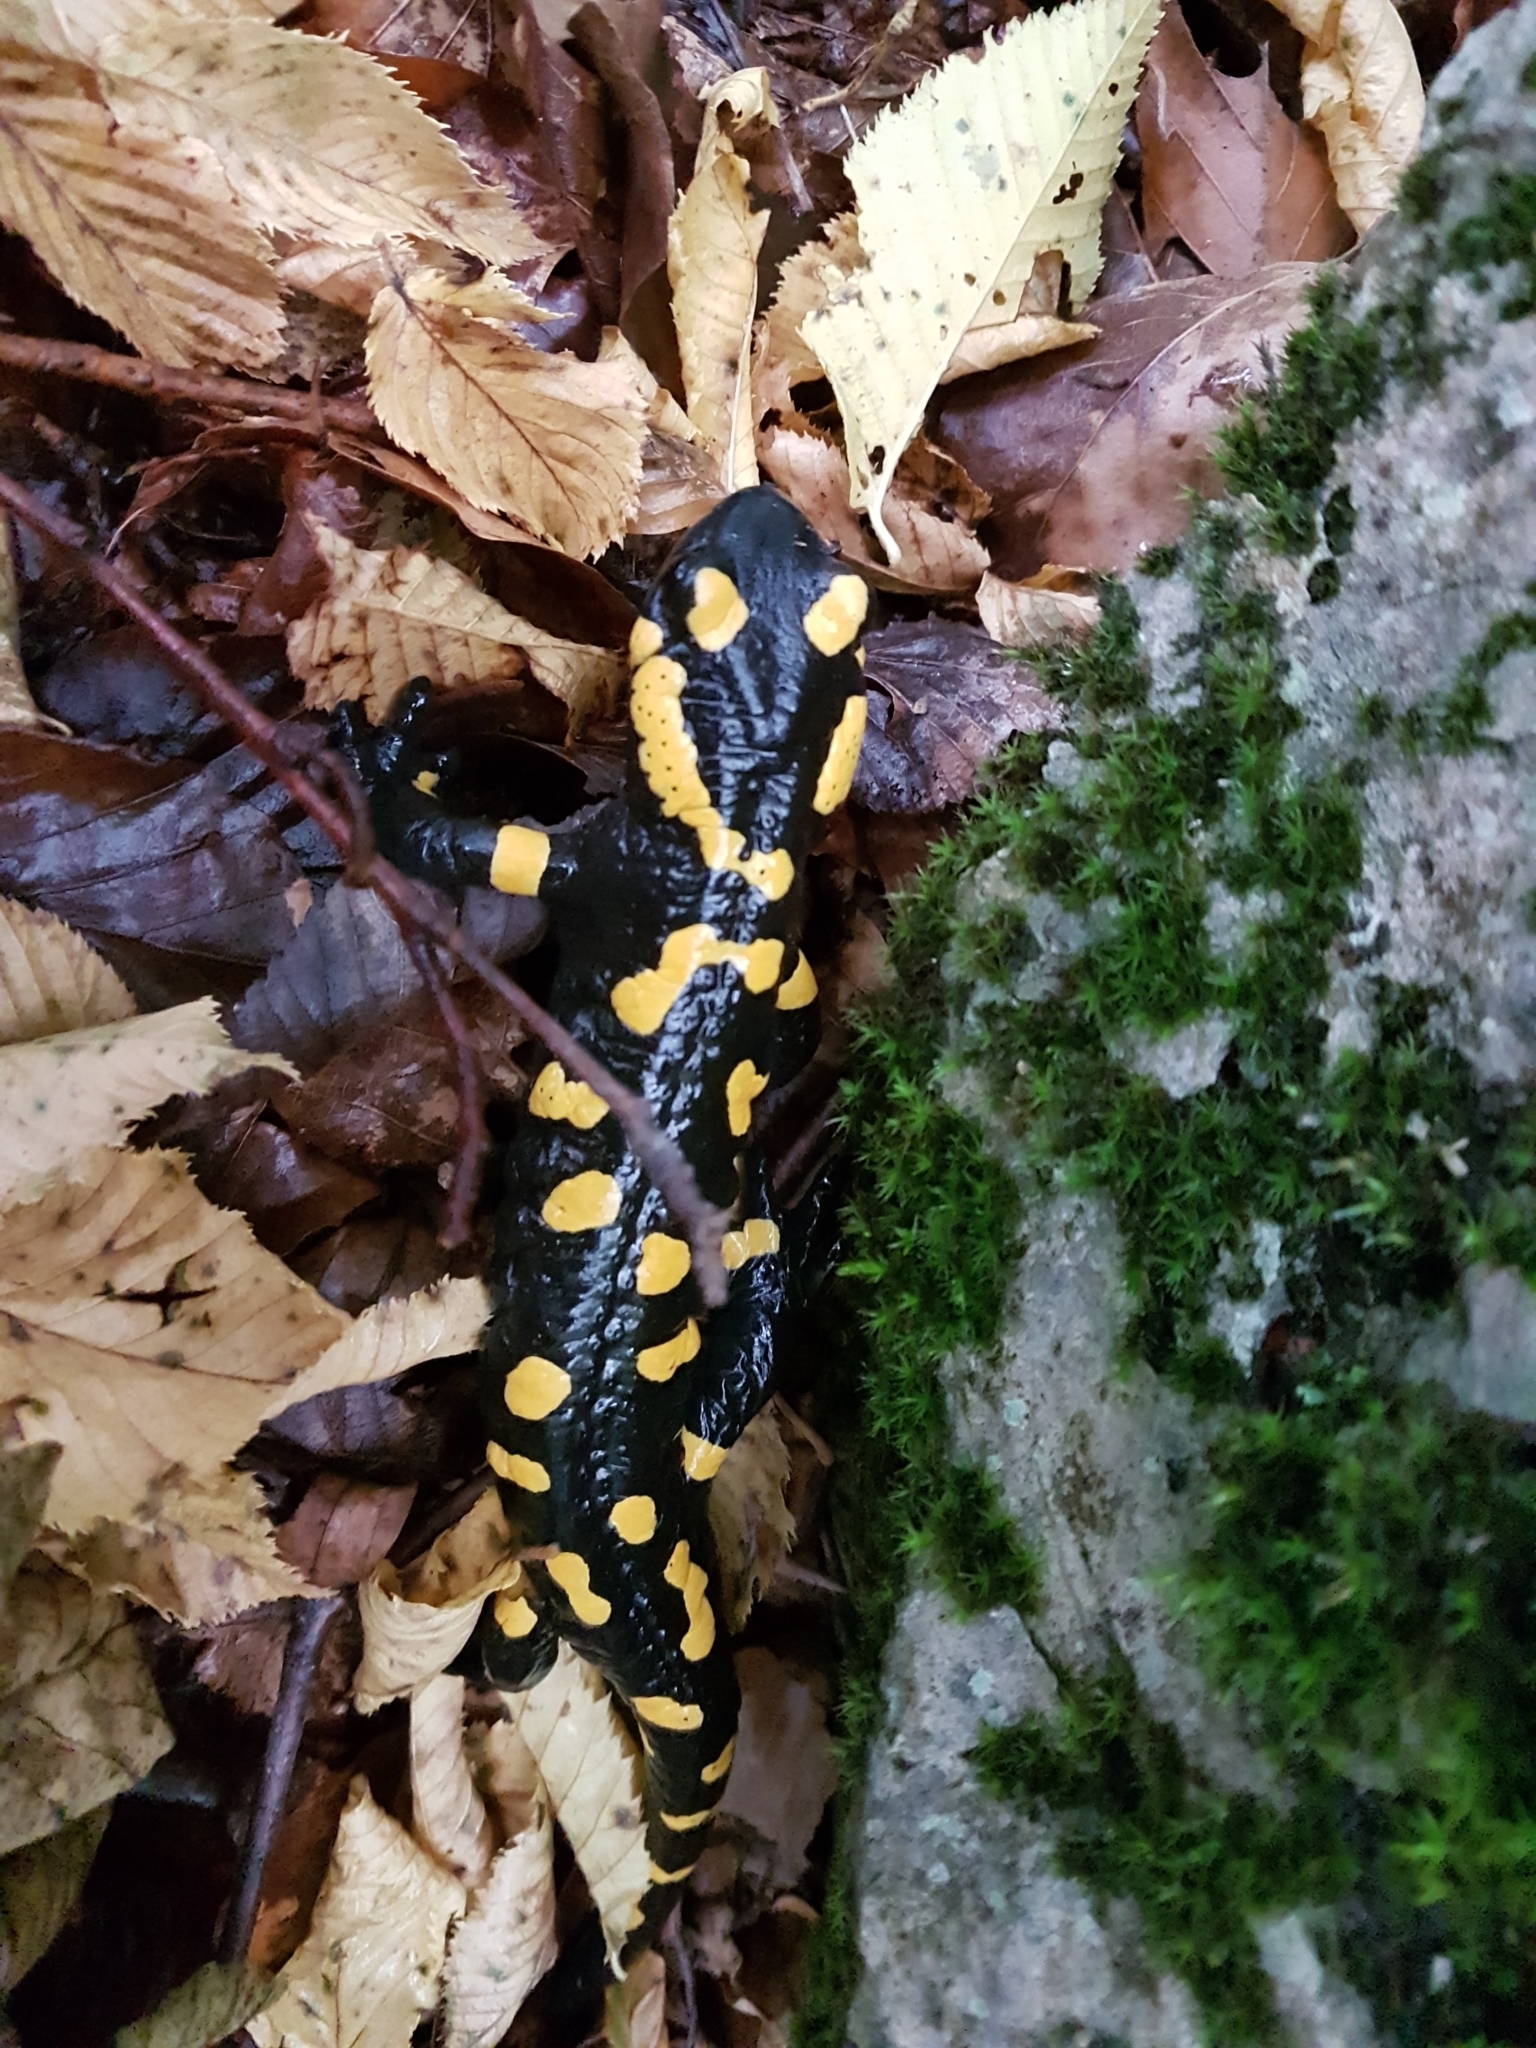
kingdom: Animalia
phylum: Chordata
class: Amphibia
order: Caudata
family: Salamandridae
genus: Salamandra
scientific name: Salamandra salamandra
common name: Fire salamander
